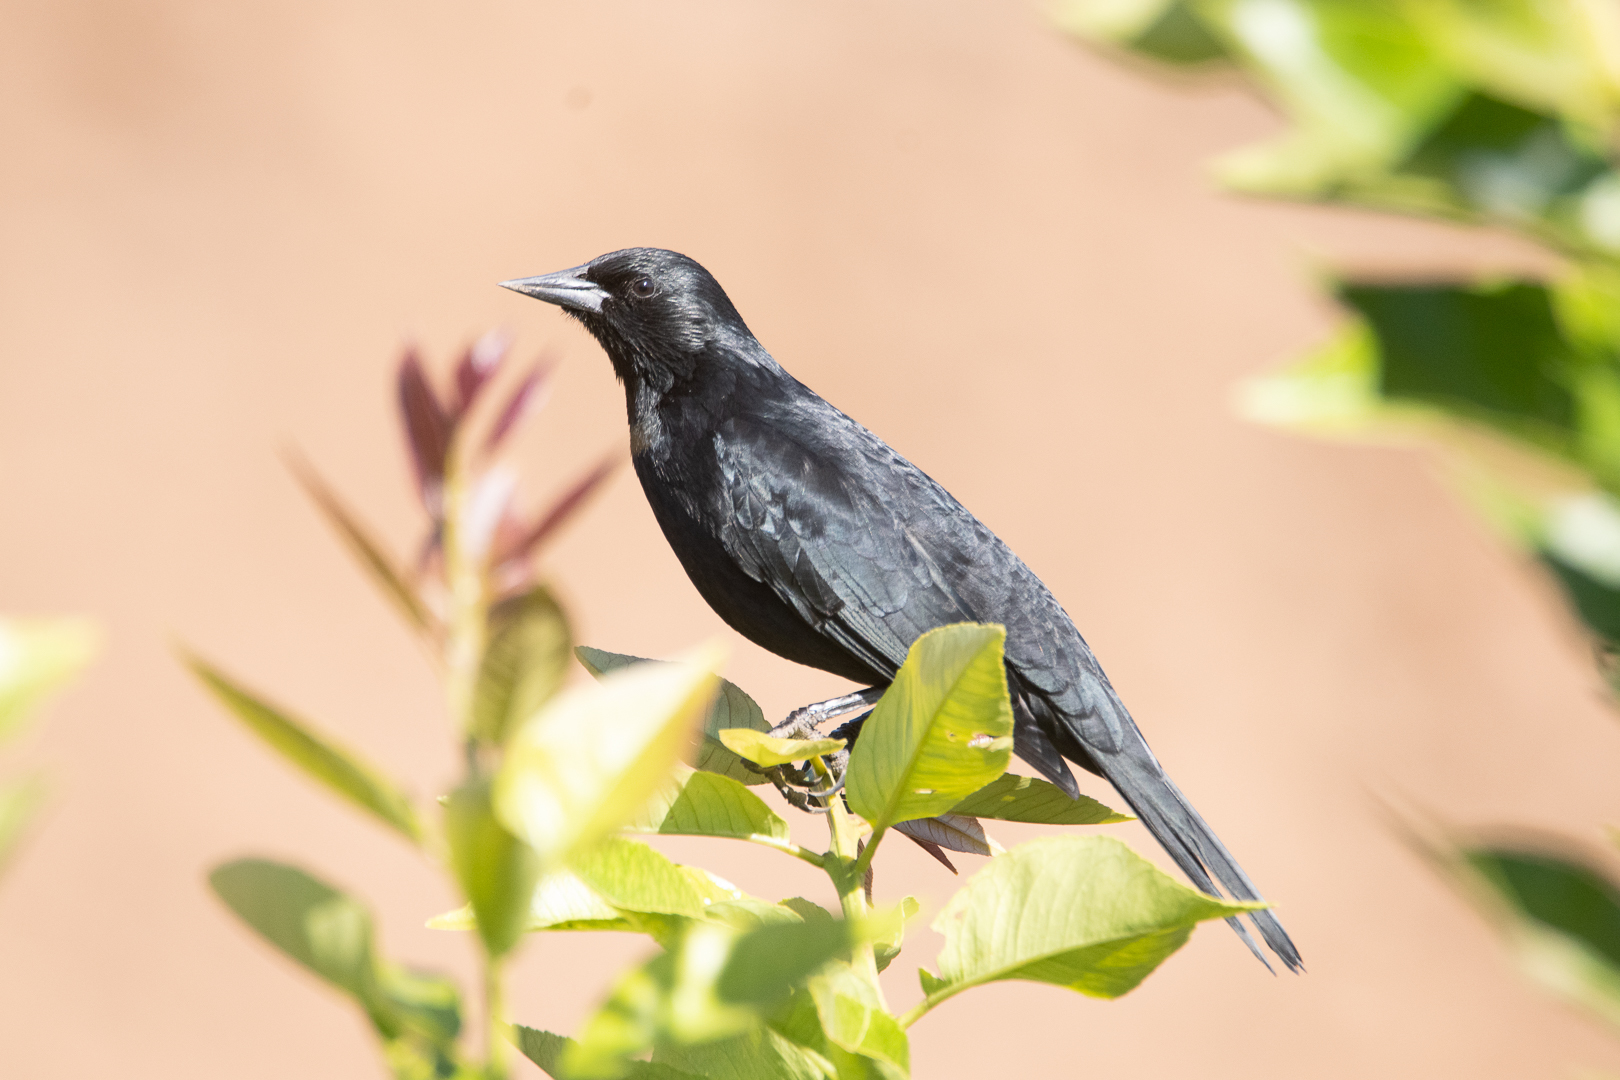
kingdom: Animalia
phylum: Chordata
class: Aves
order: Passeriformes
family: Icteridae
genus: Curaeus
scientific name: Curaeus curaeus
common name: Austral blackbird
